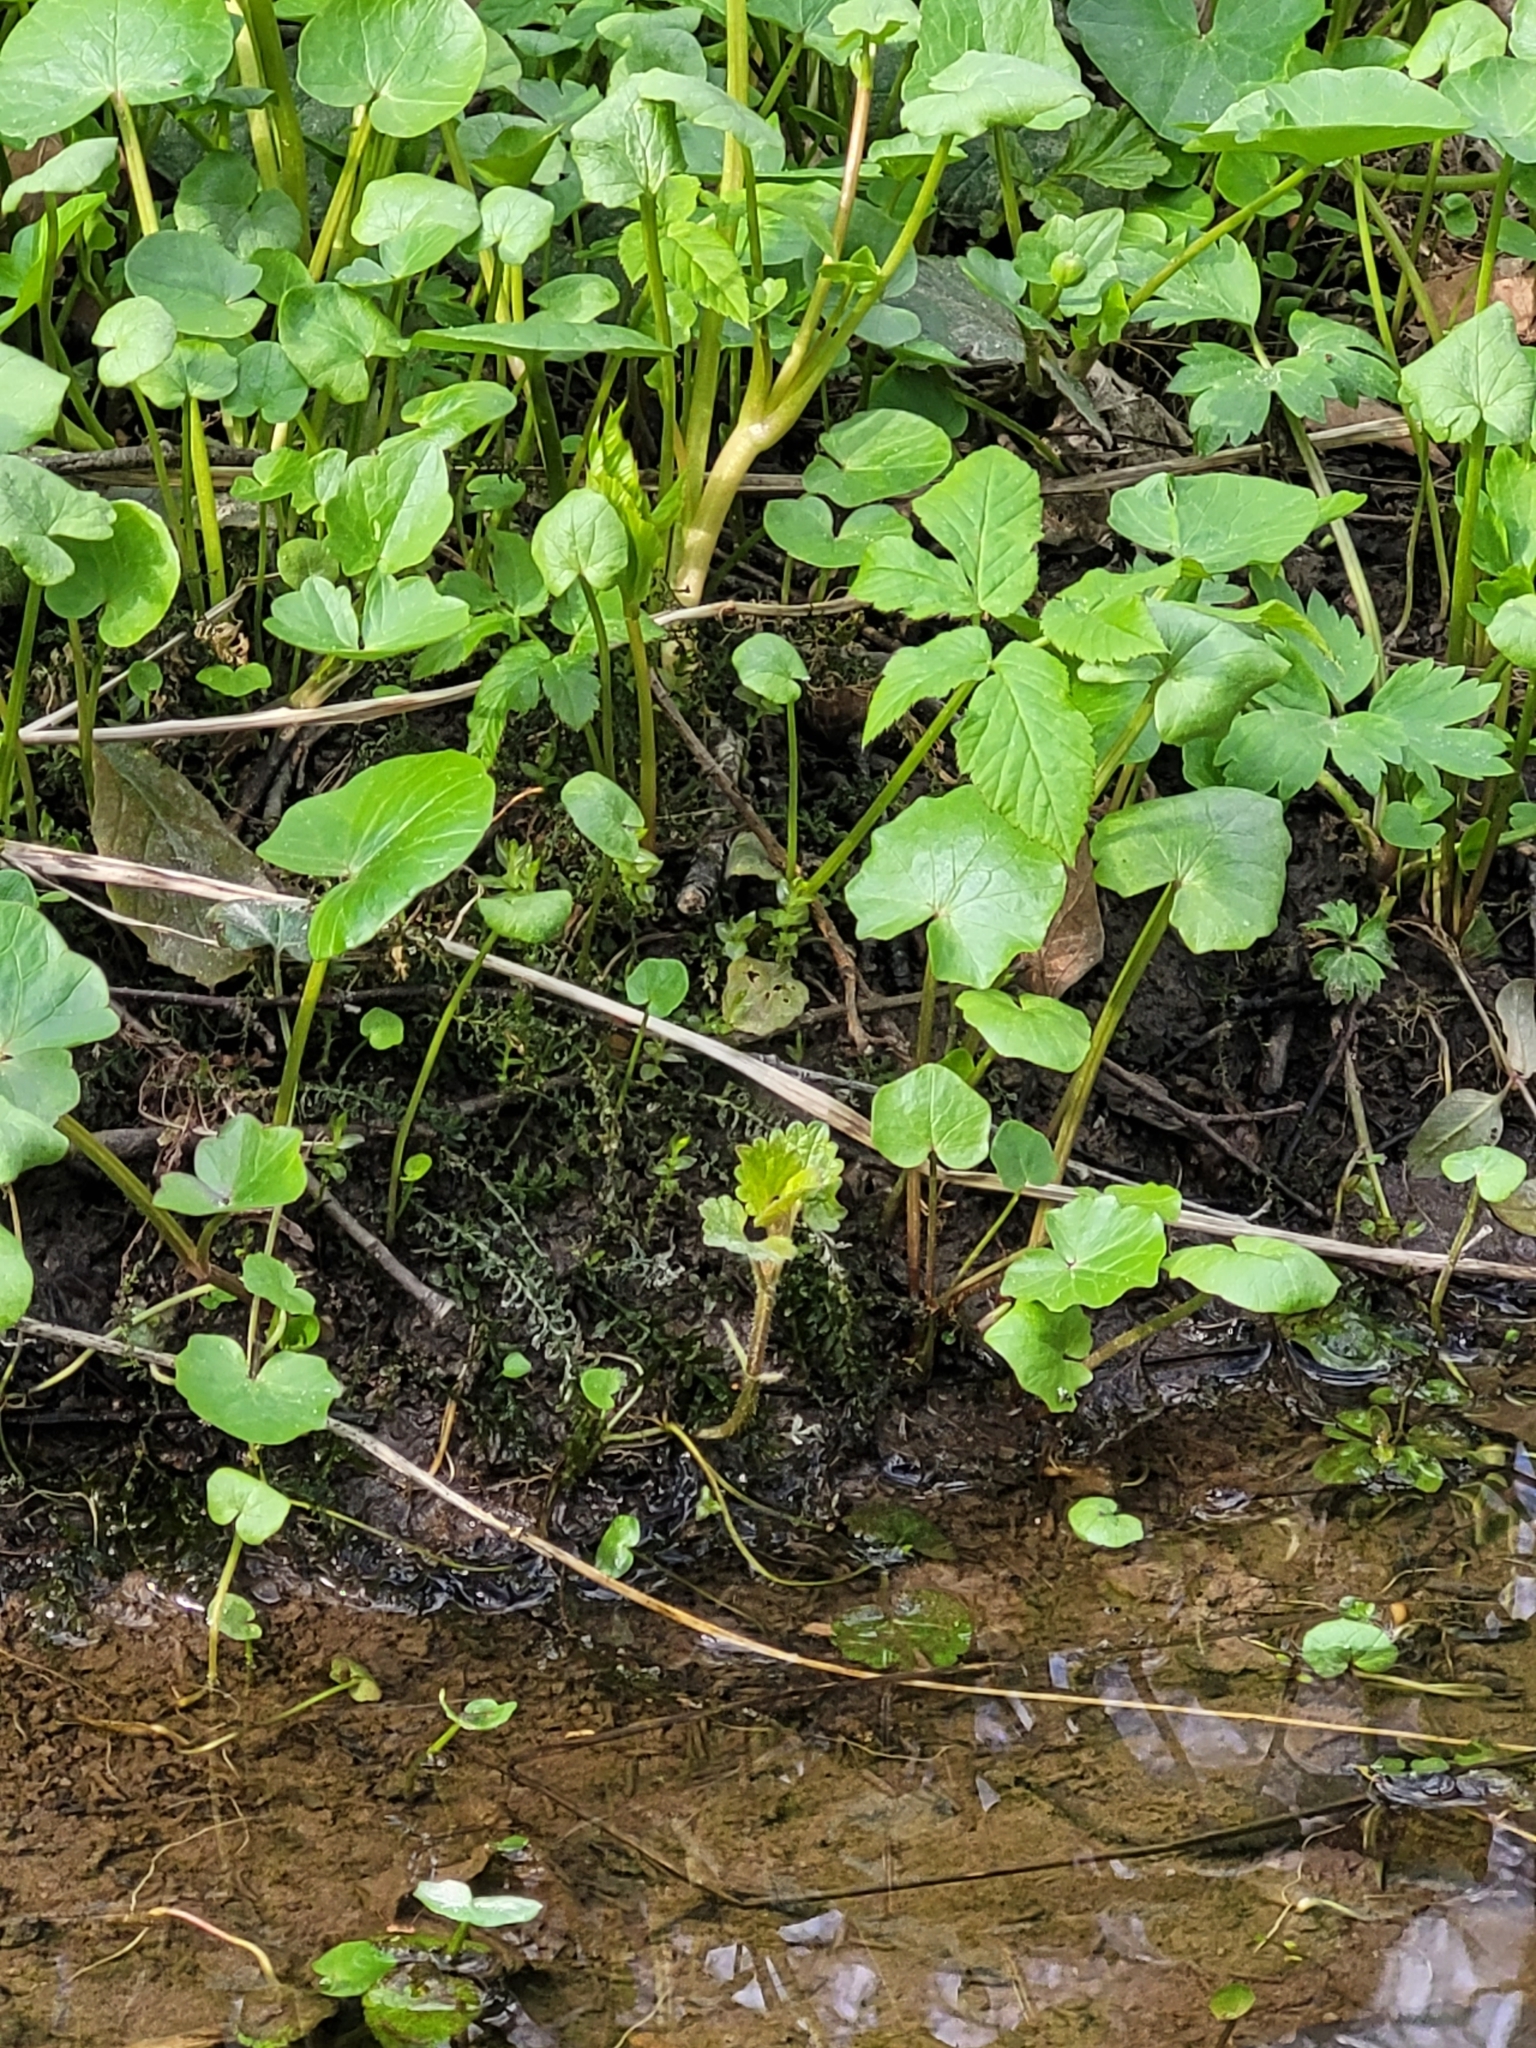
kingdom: Plantae
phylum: Tracheophyta
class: Magnoliopsida
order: Ranunculales
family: Ranunculaceae
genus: Ficaria
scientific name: Ficaria verna
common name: Lesser celandine
